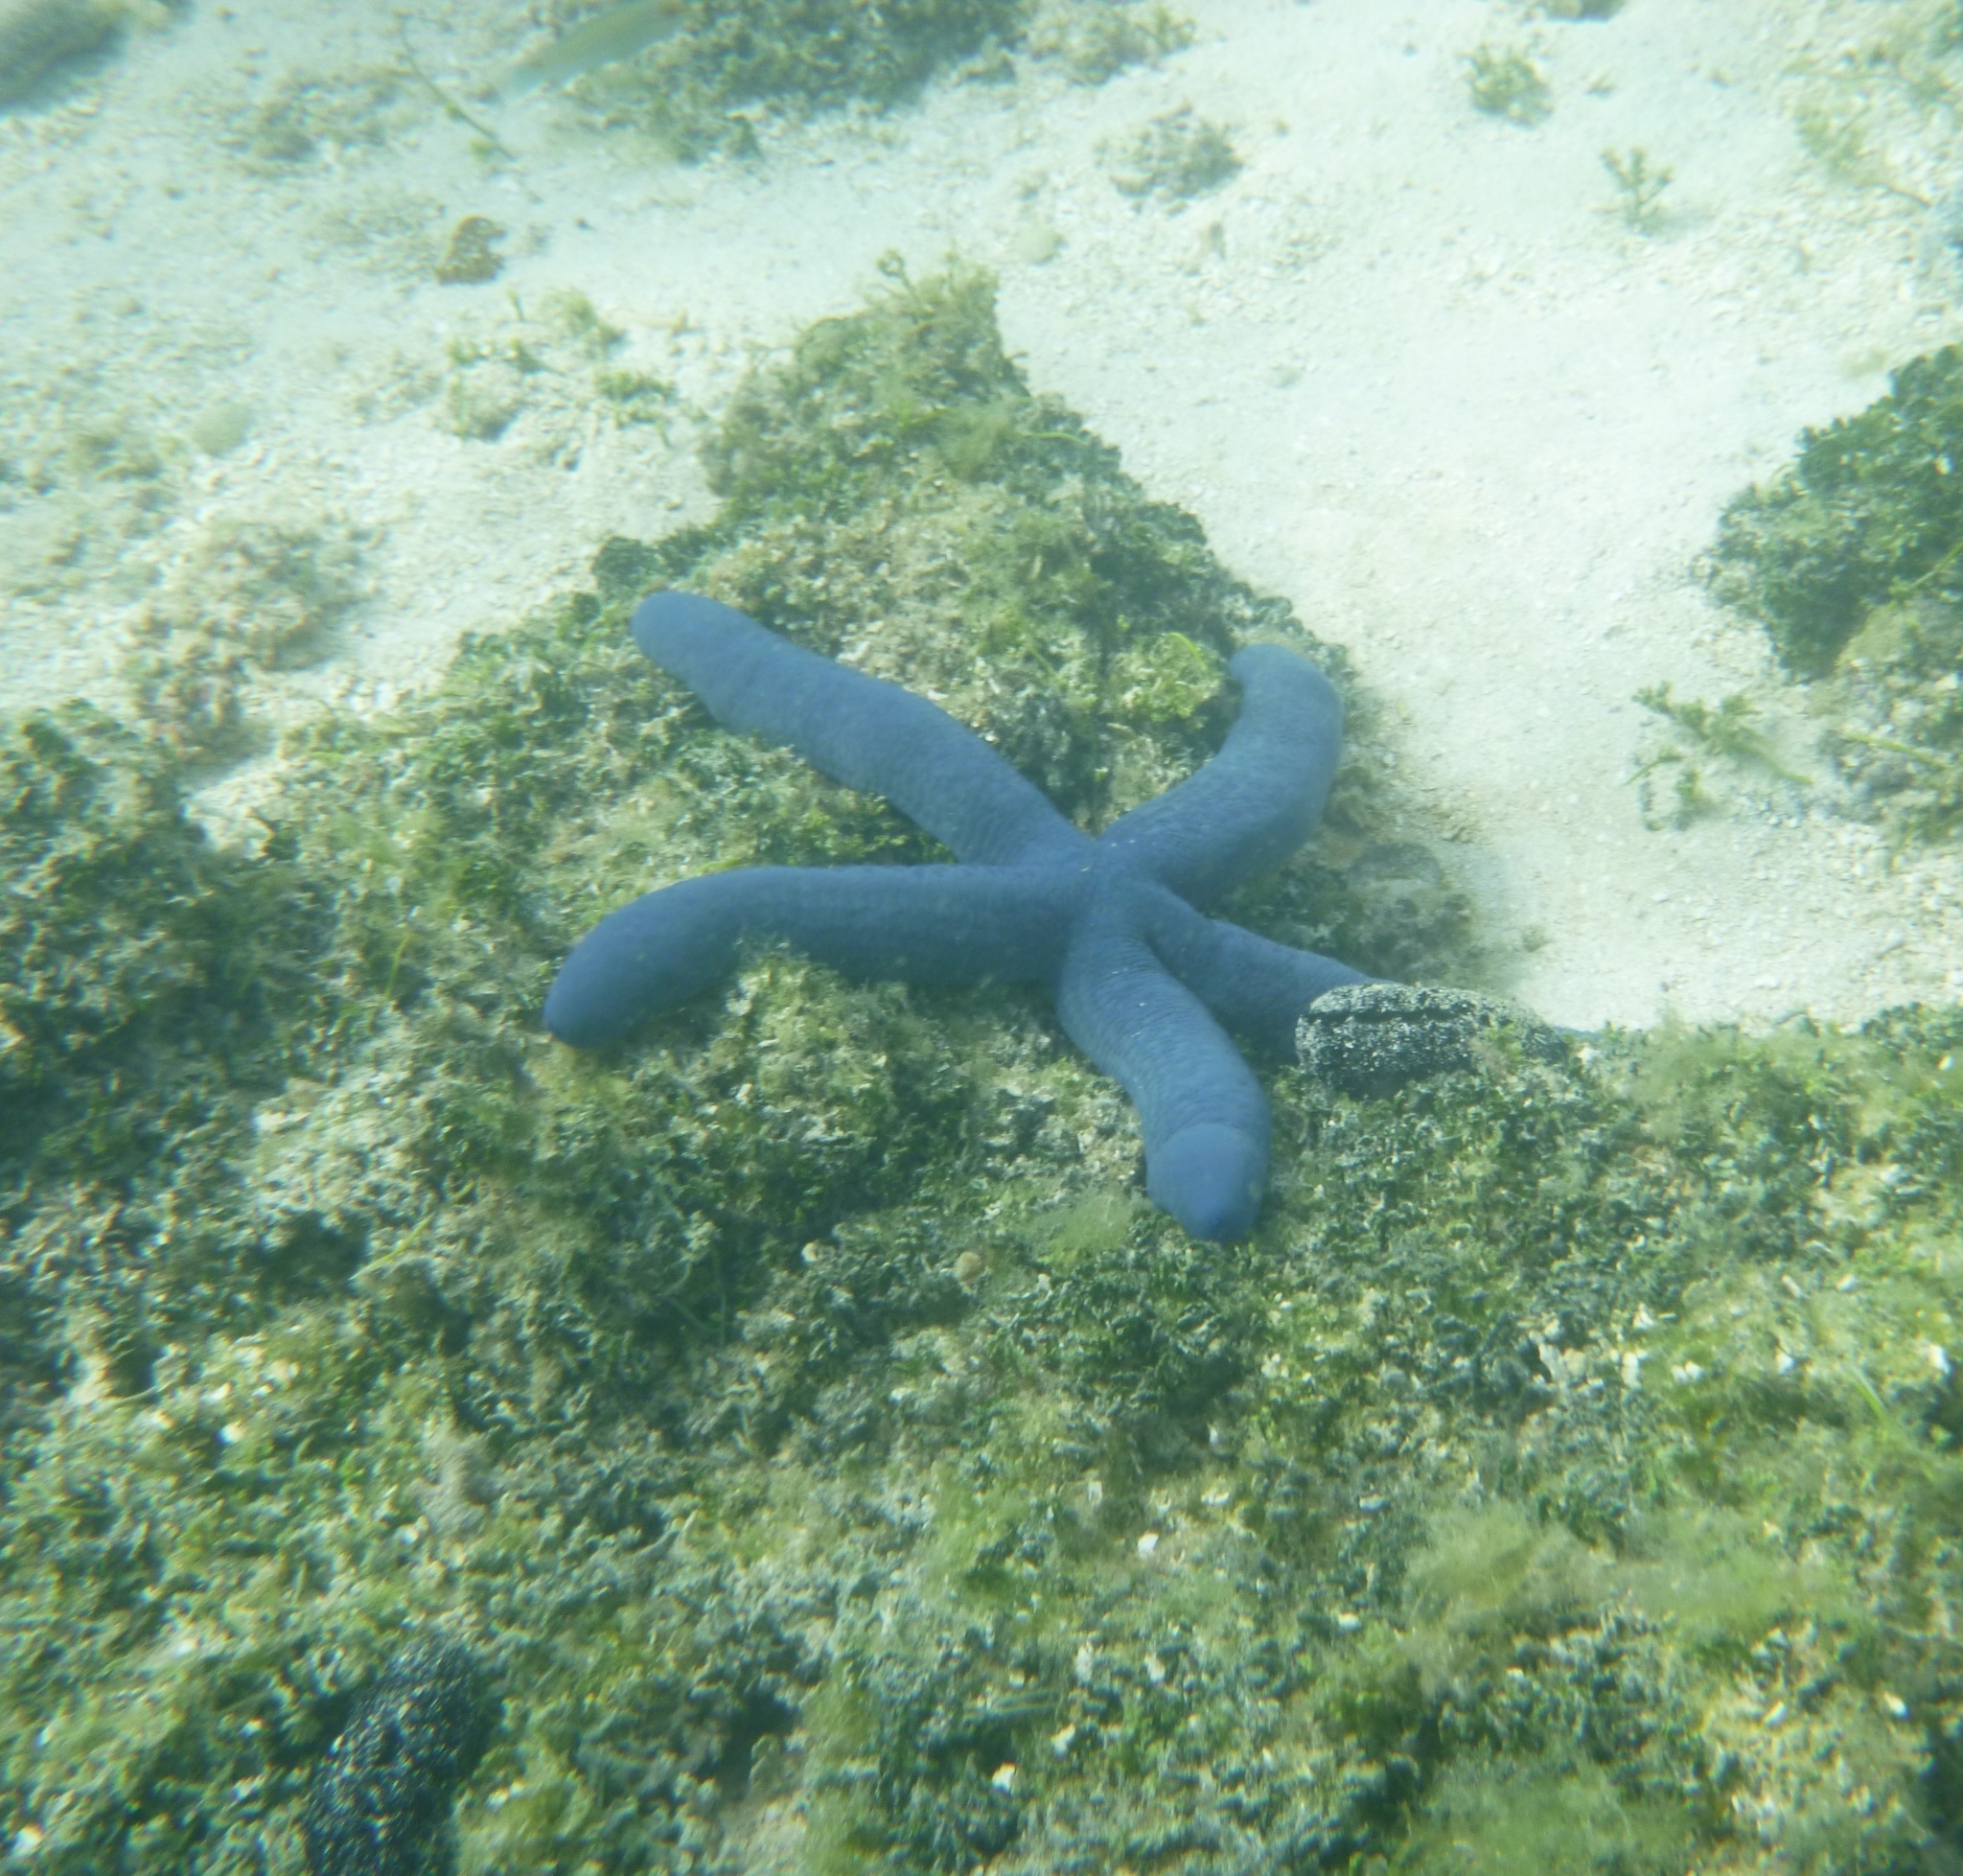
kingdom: Animalia
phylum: Echinodermata
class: Asteroidea
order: Valvatida
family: Ophidiasteridae
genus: Linckia
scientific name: Linckia laevigata
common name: Azure sea star
